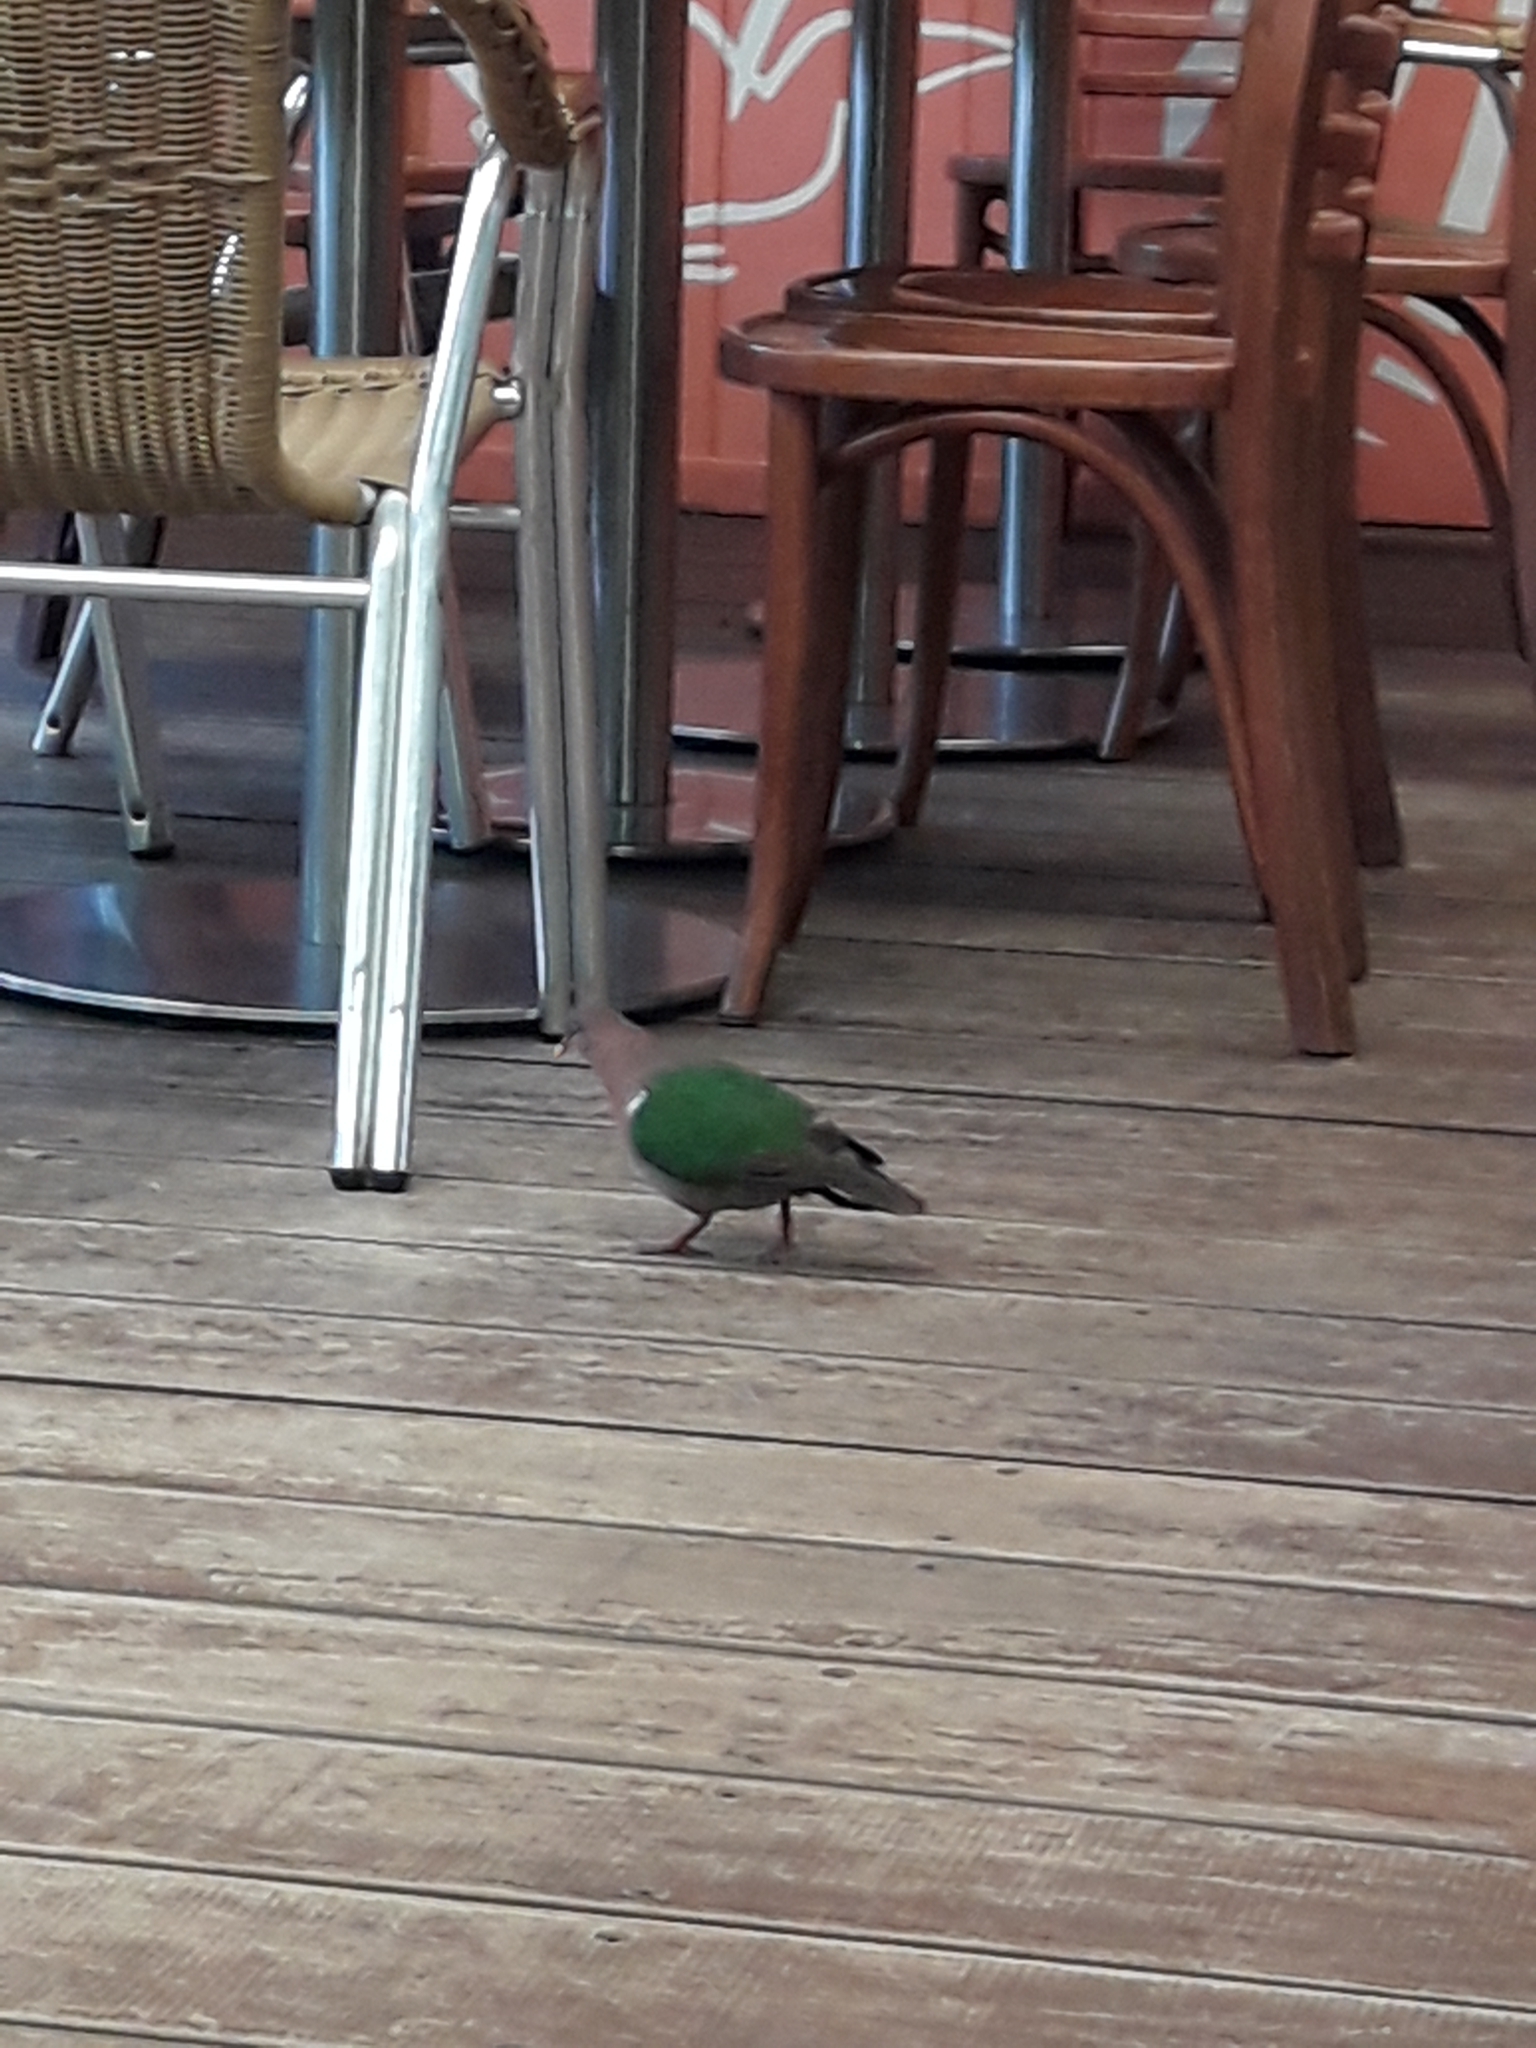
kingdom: Animalia
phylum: Chordata
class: Aves
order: Columbiformes
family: Columbidae
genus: Chalcophaps
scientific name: Chalcophaps longirostris
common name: Pacific emerald dove
